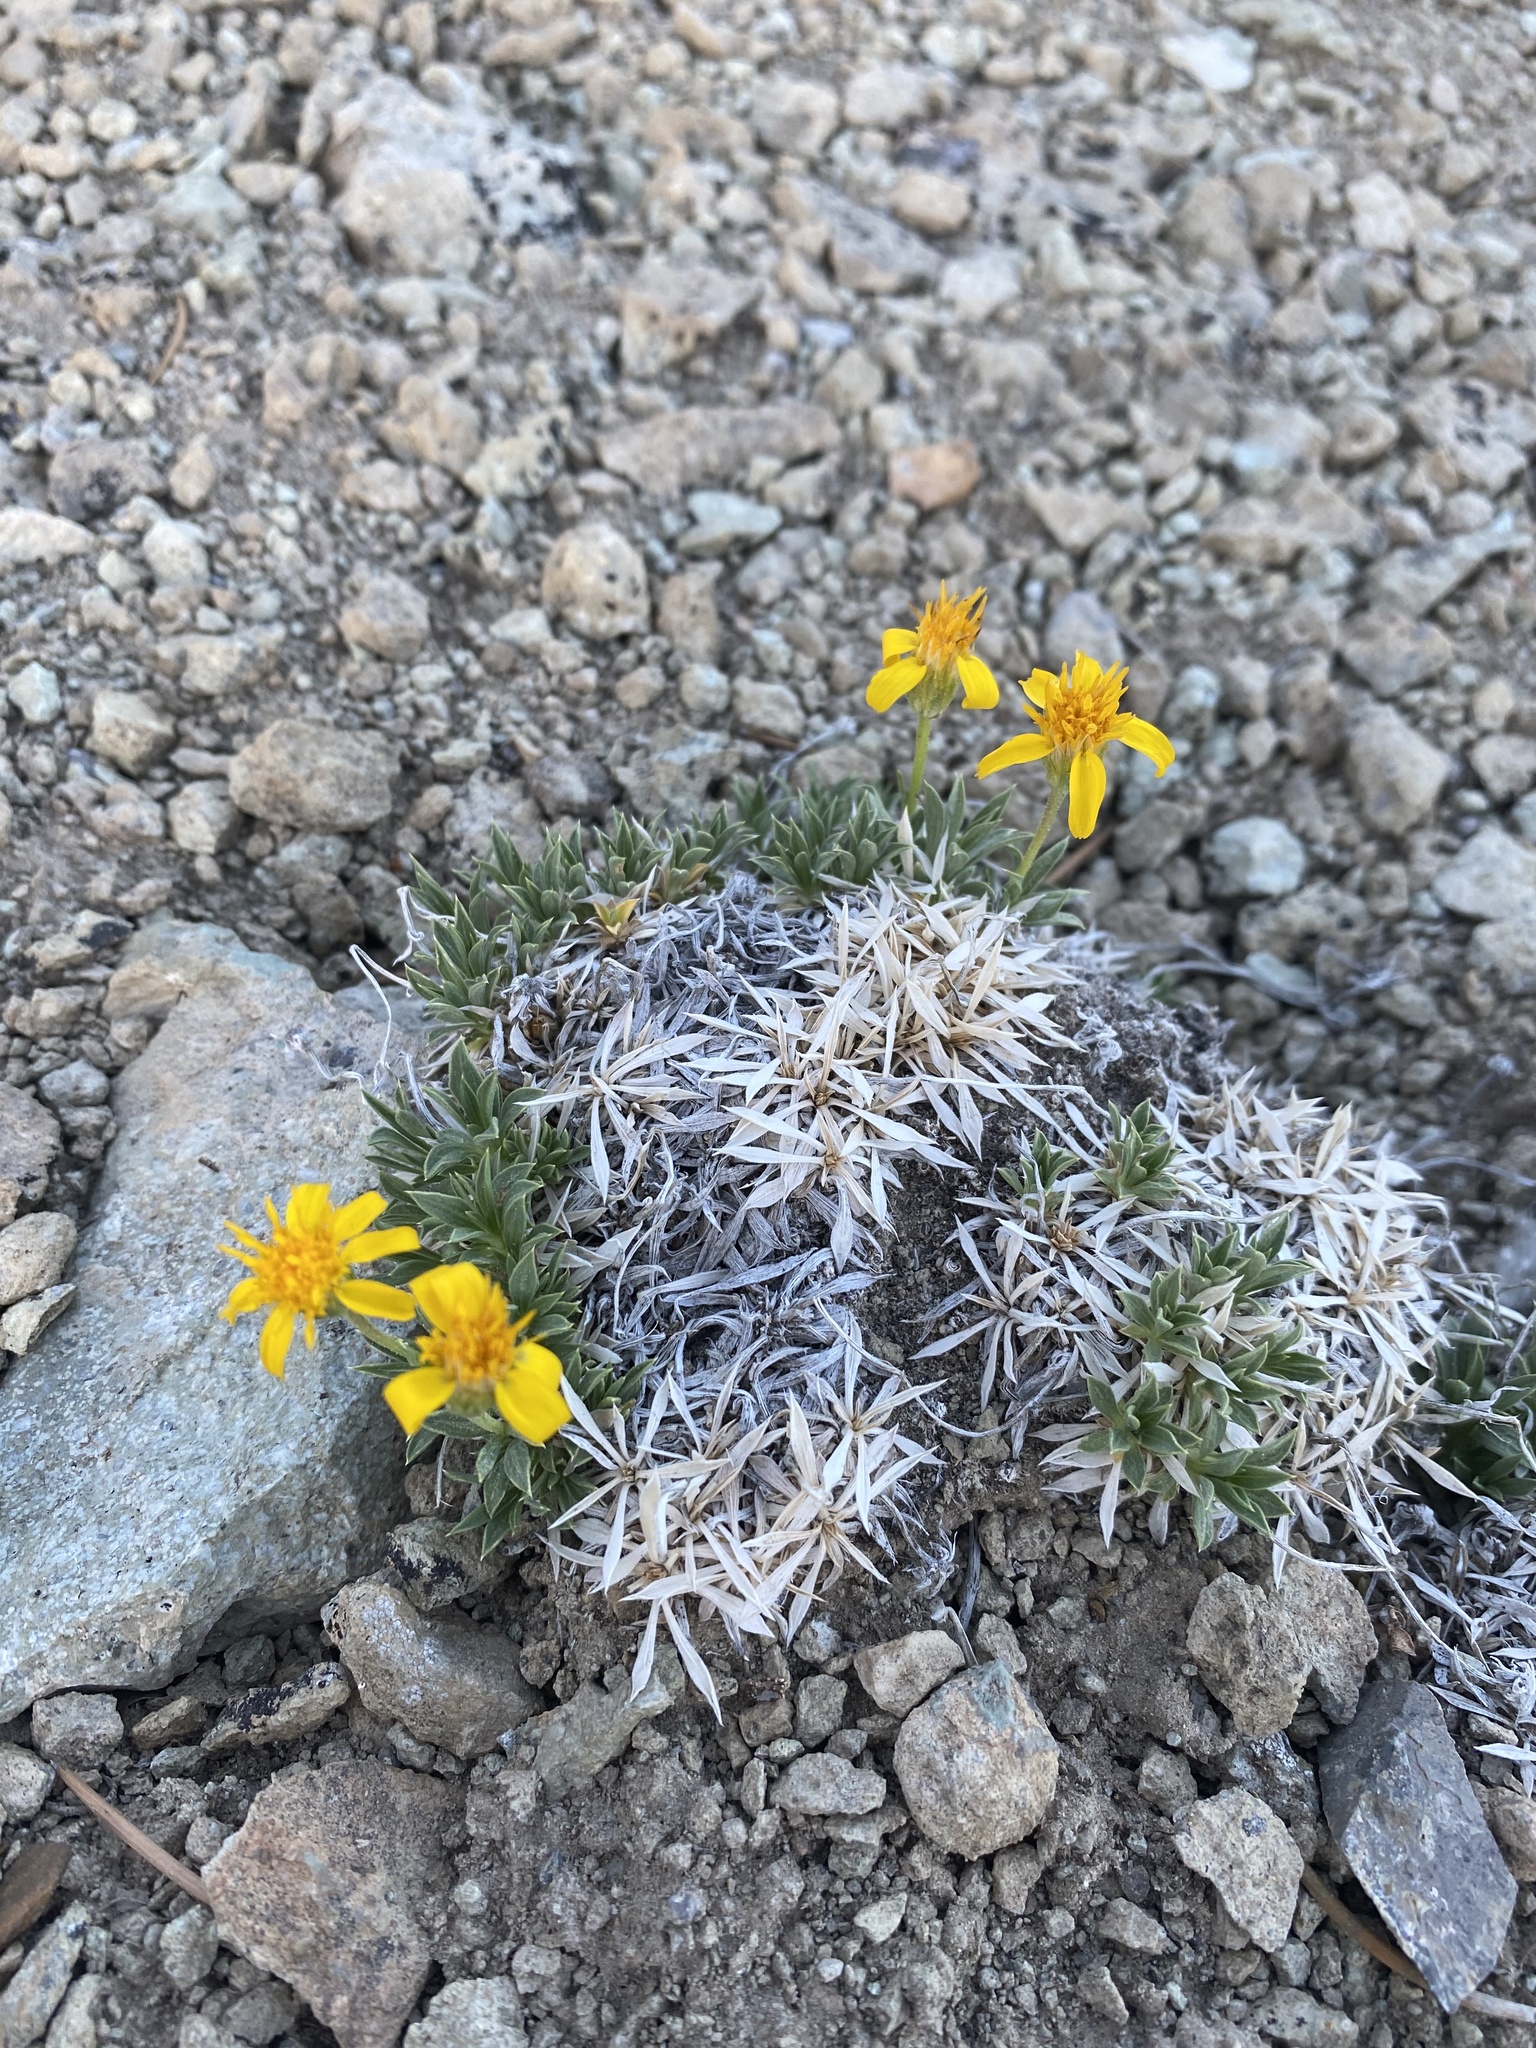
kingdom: Plantae
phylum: Tracheophyta
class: Magnoliopsida
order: Asterales
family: Asteraceae
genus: Stenotus
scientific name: Stenotus acaulis
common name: Stemless goldenweed
